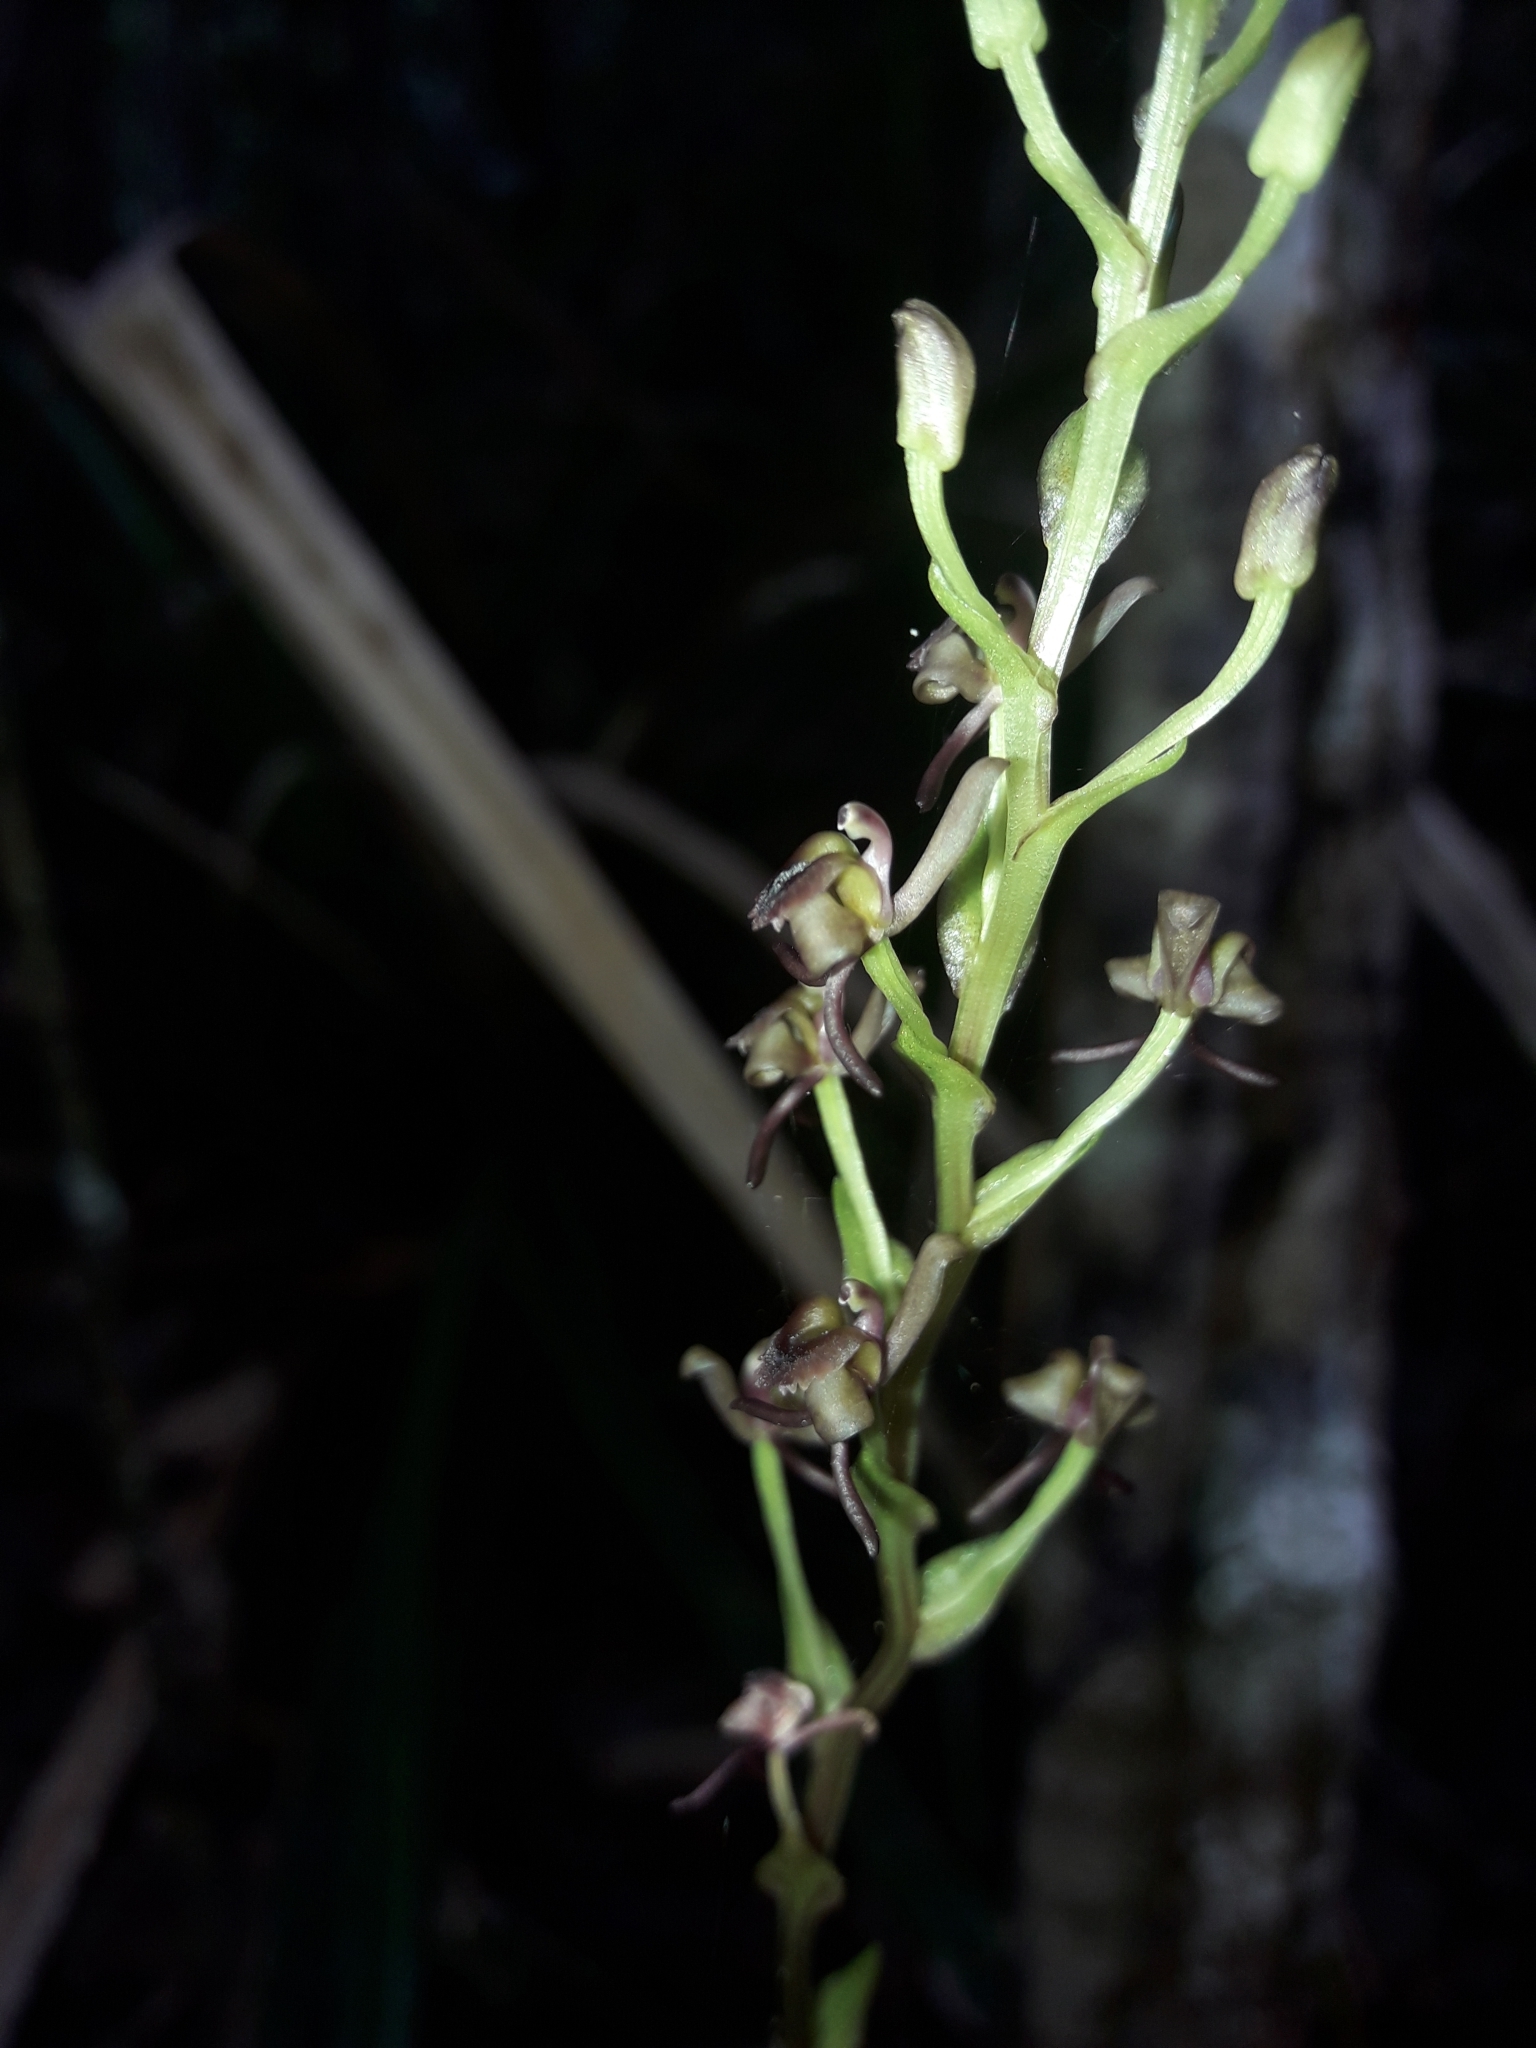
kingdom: Plantae
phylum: Tracheophyta
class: Liliopsida
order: Asparagales
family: Orchidaceae
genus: Liparis
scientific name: Liparis laxa
